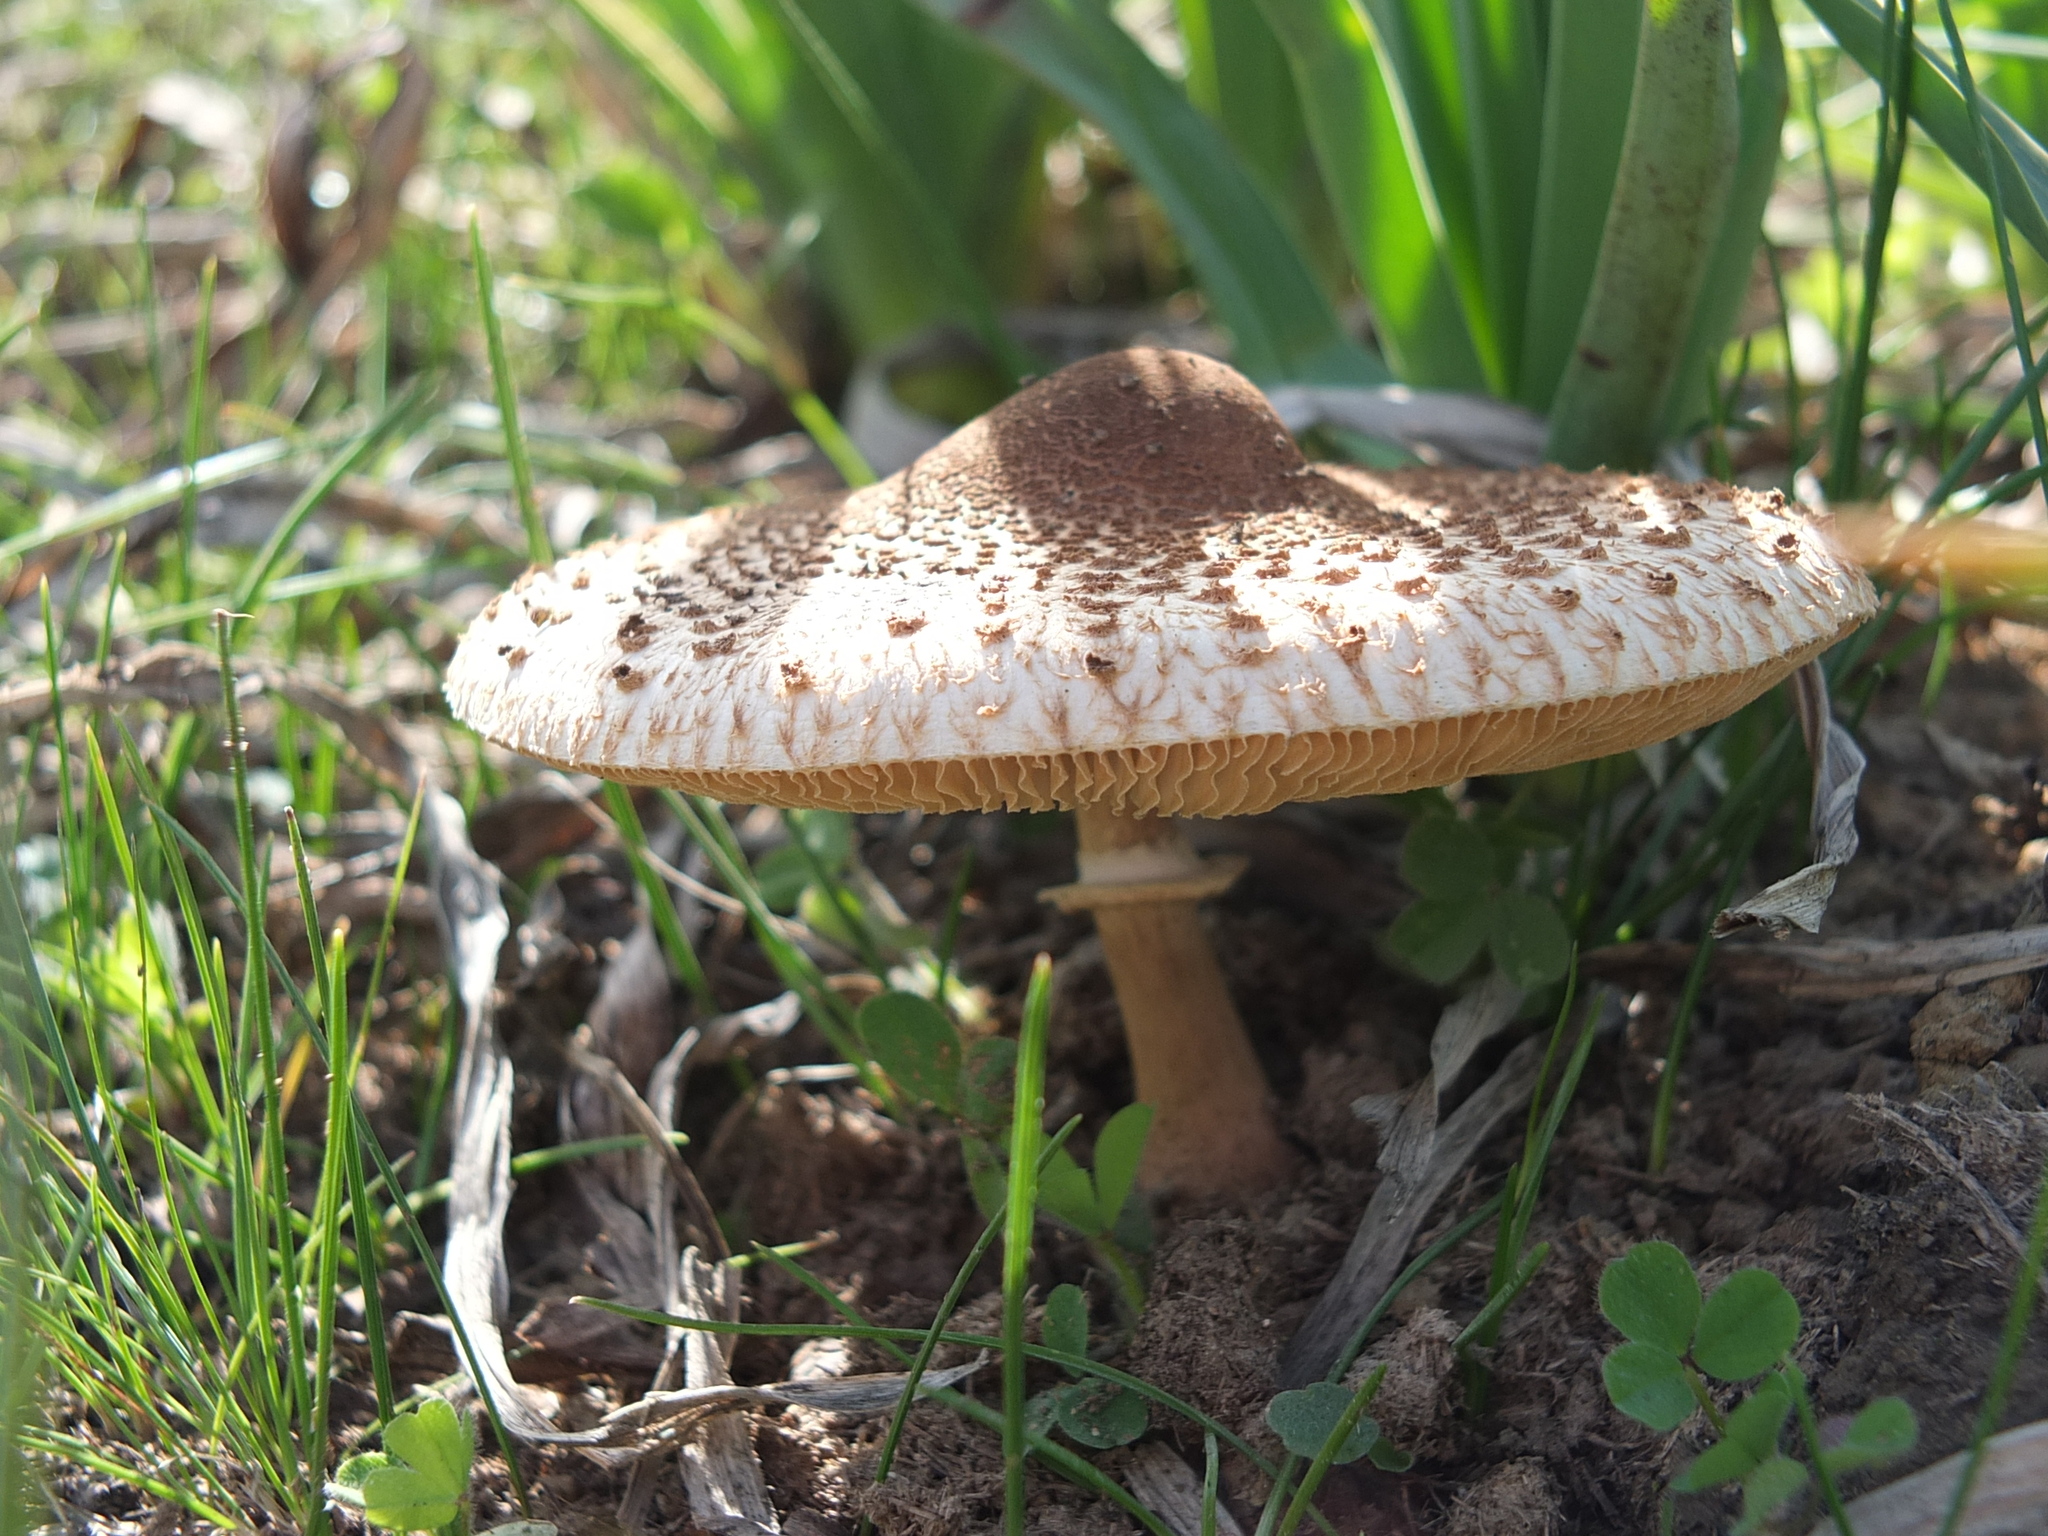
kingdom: Fungi
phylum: Basidiomycota
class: Agaricomycetes
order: Agaricales
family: Agaricaceae
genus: Lepiota
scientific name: Lepiota fuligineosquarrosa
